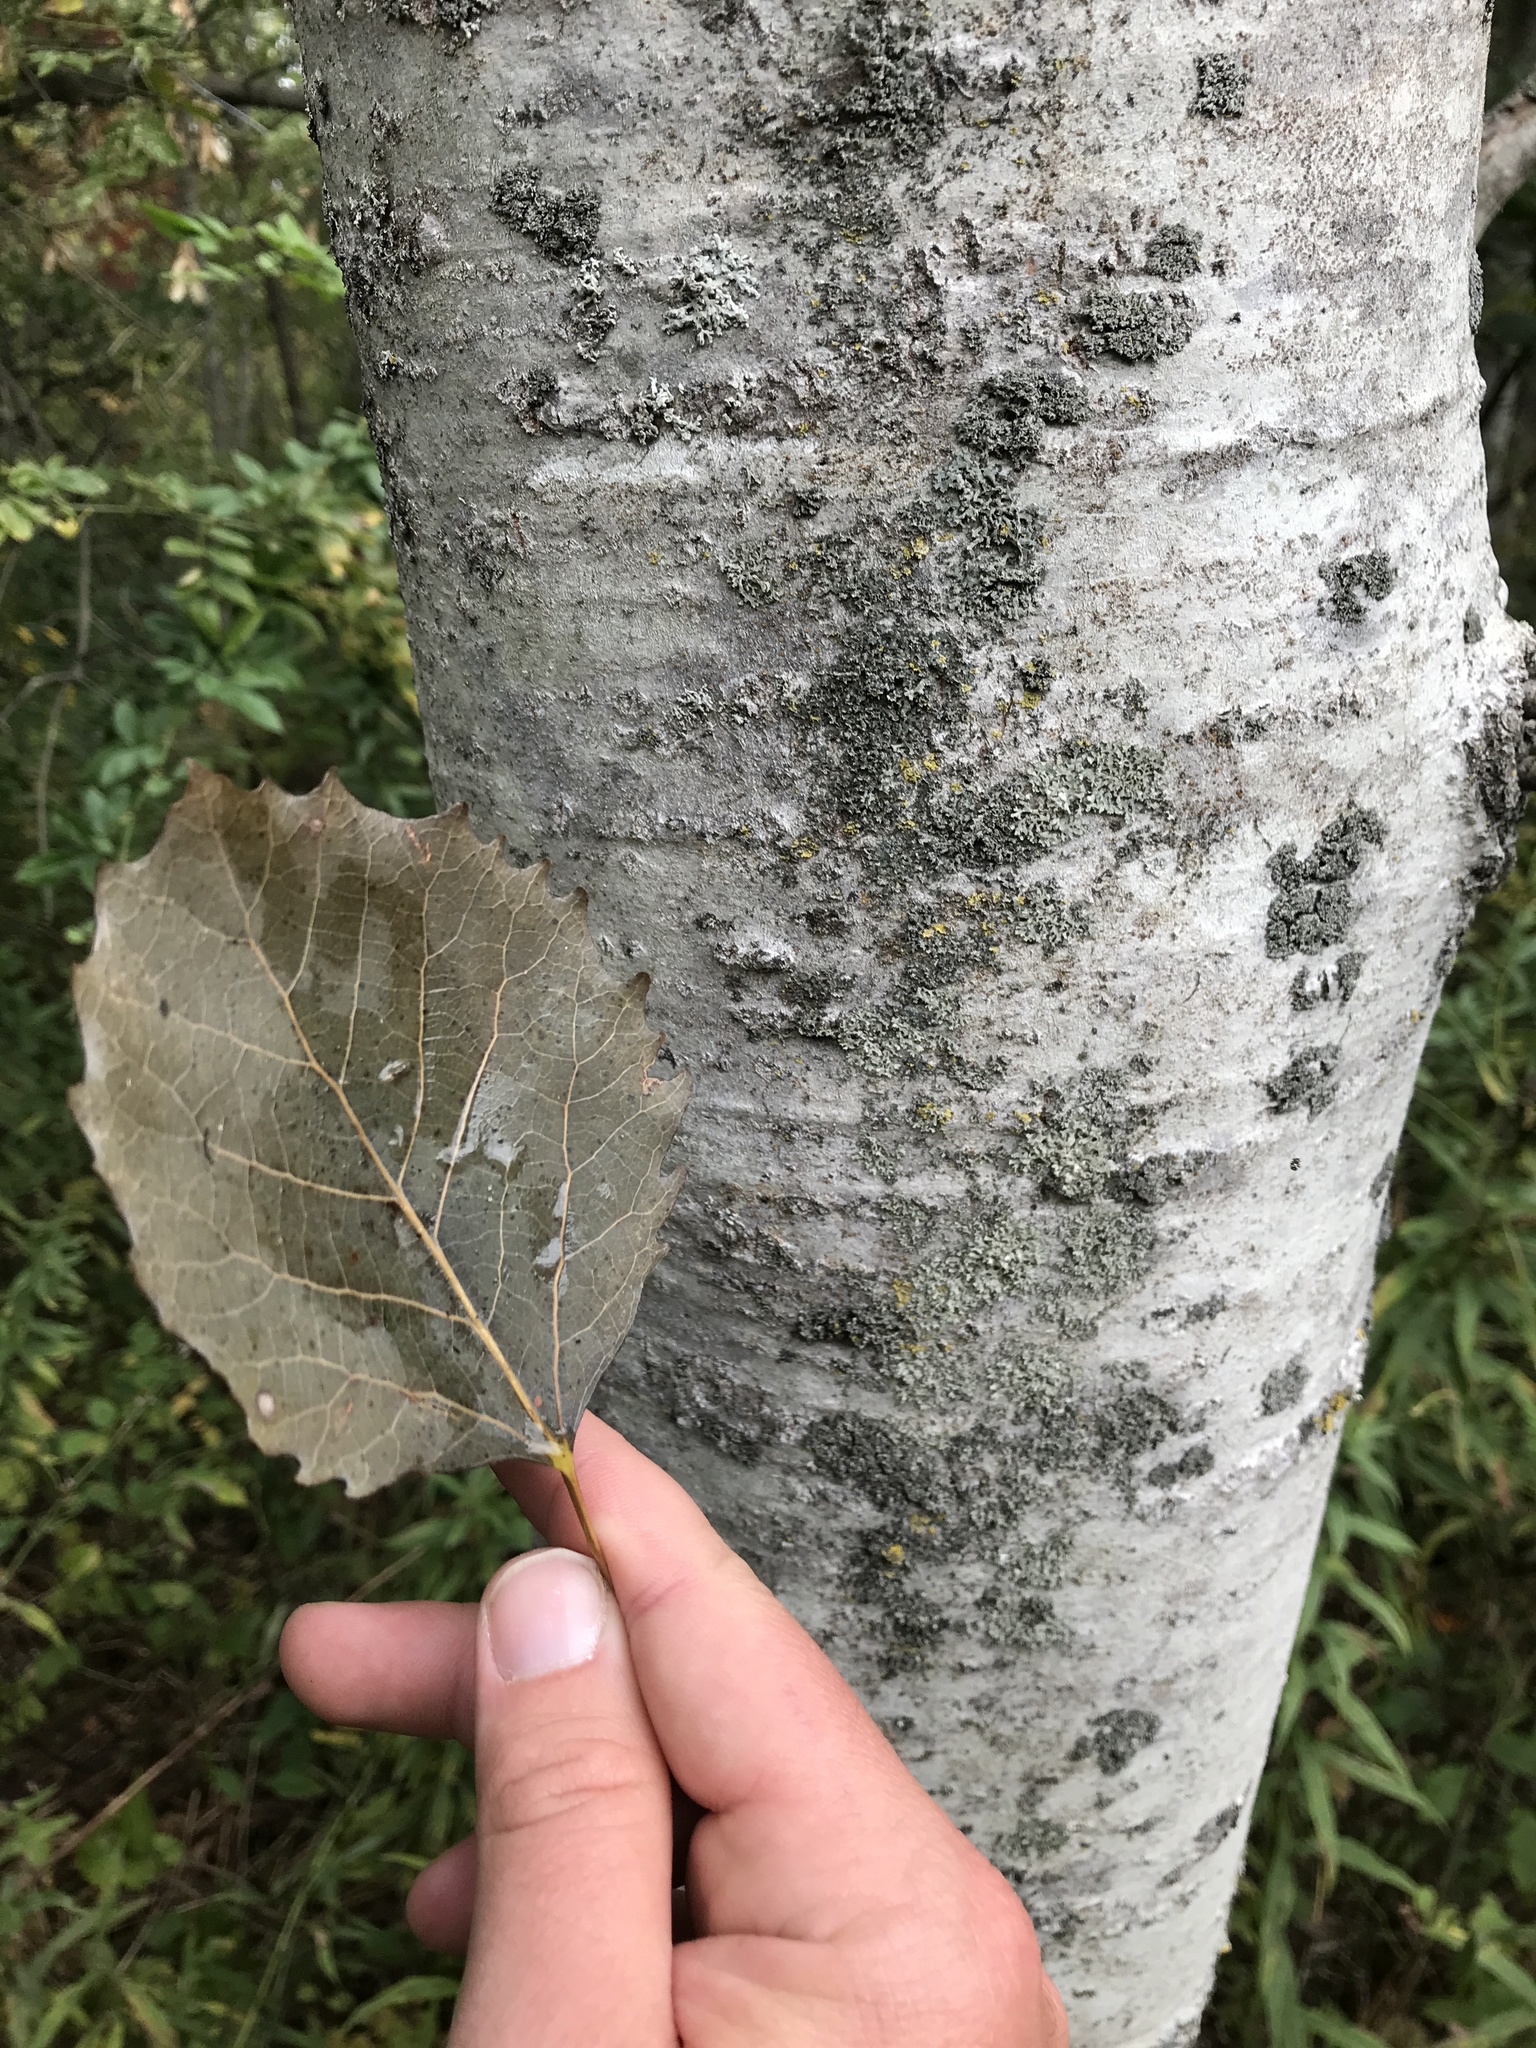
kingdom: Plantae
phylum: Tracheophyta
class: Magnoliopsida
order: Malpighiales
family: Salicaceae
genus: Populus
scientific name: Populus grandidentata
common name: Bigtooth aspen
